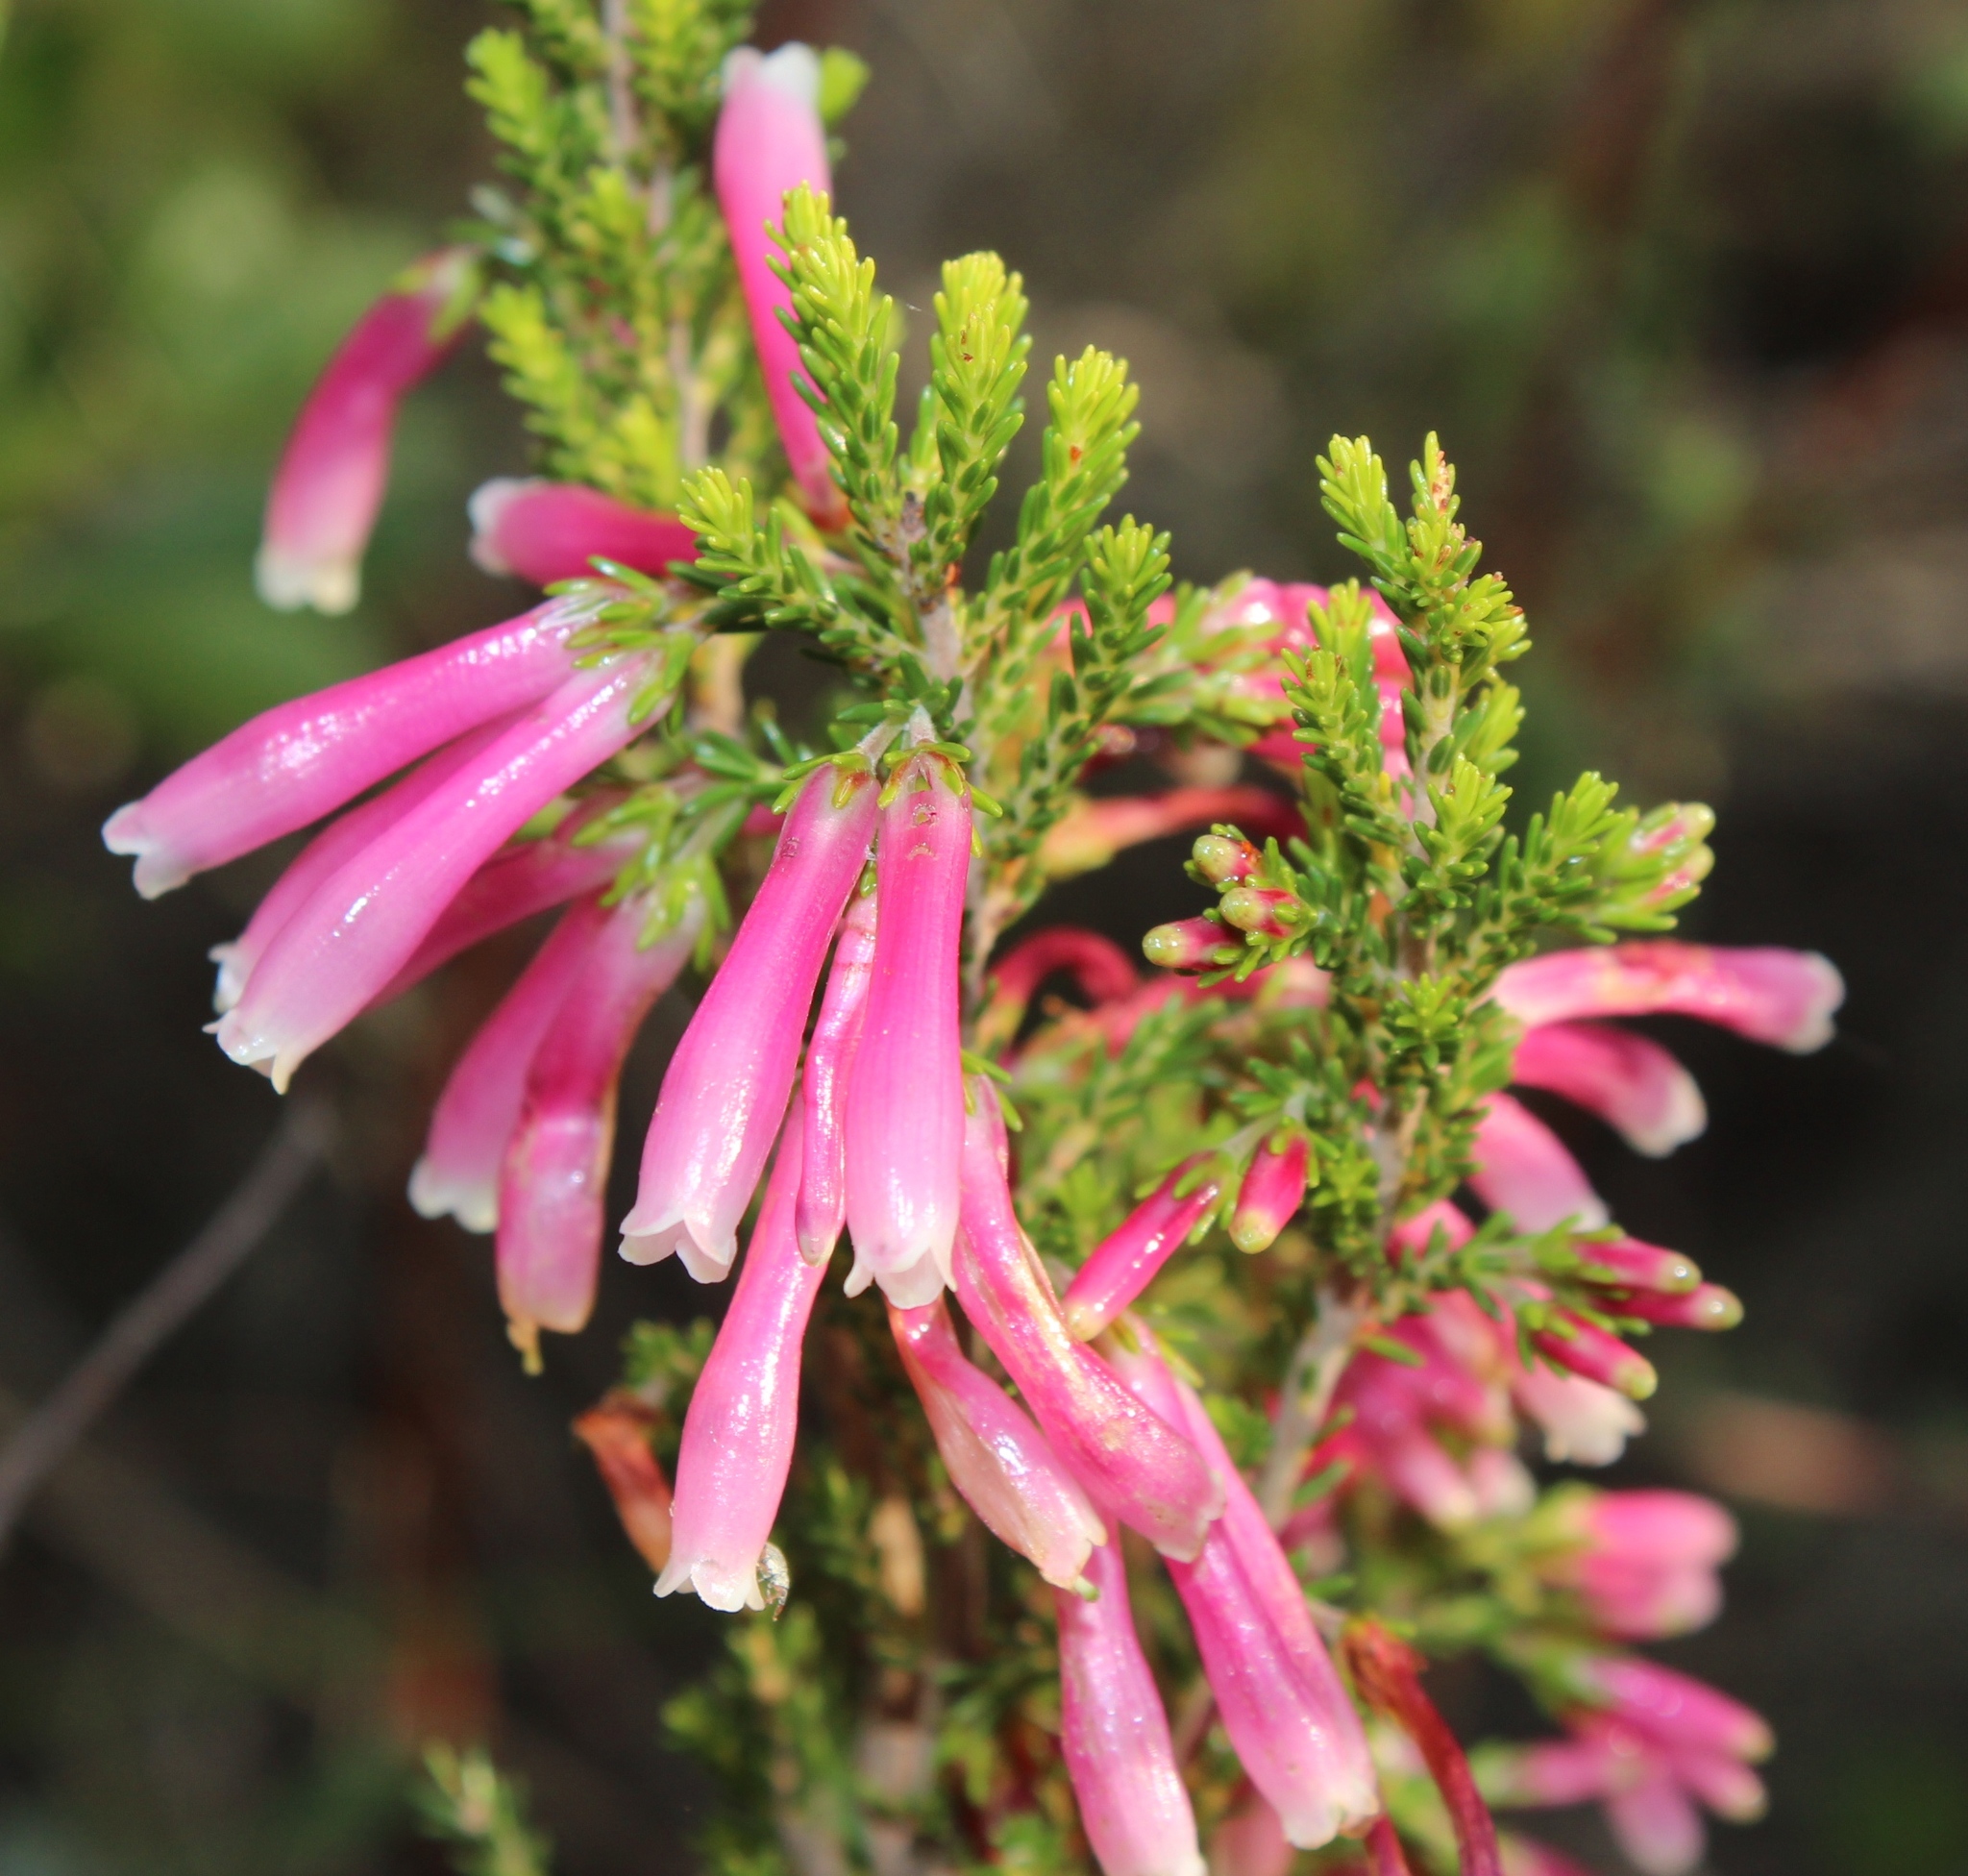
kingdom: Plantae
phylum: Tracheophyta
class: Magnoliopsida
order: Ericales
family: Ericaceae
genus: Erica
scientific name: Erica discolor
